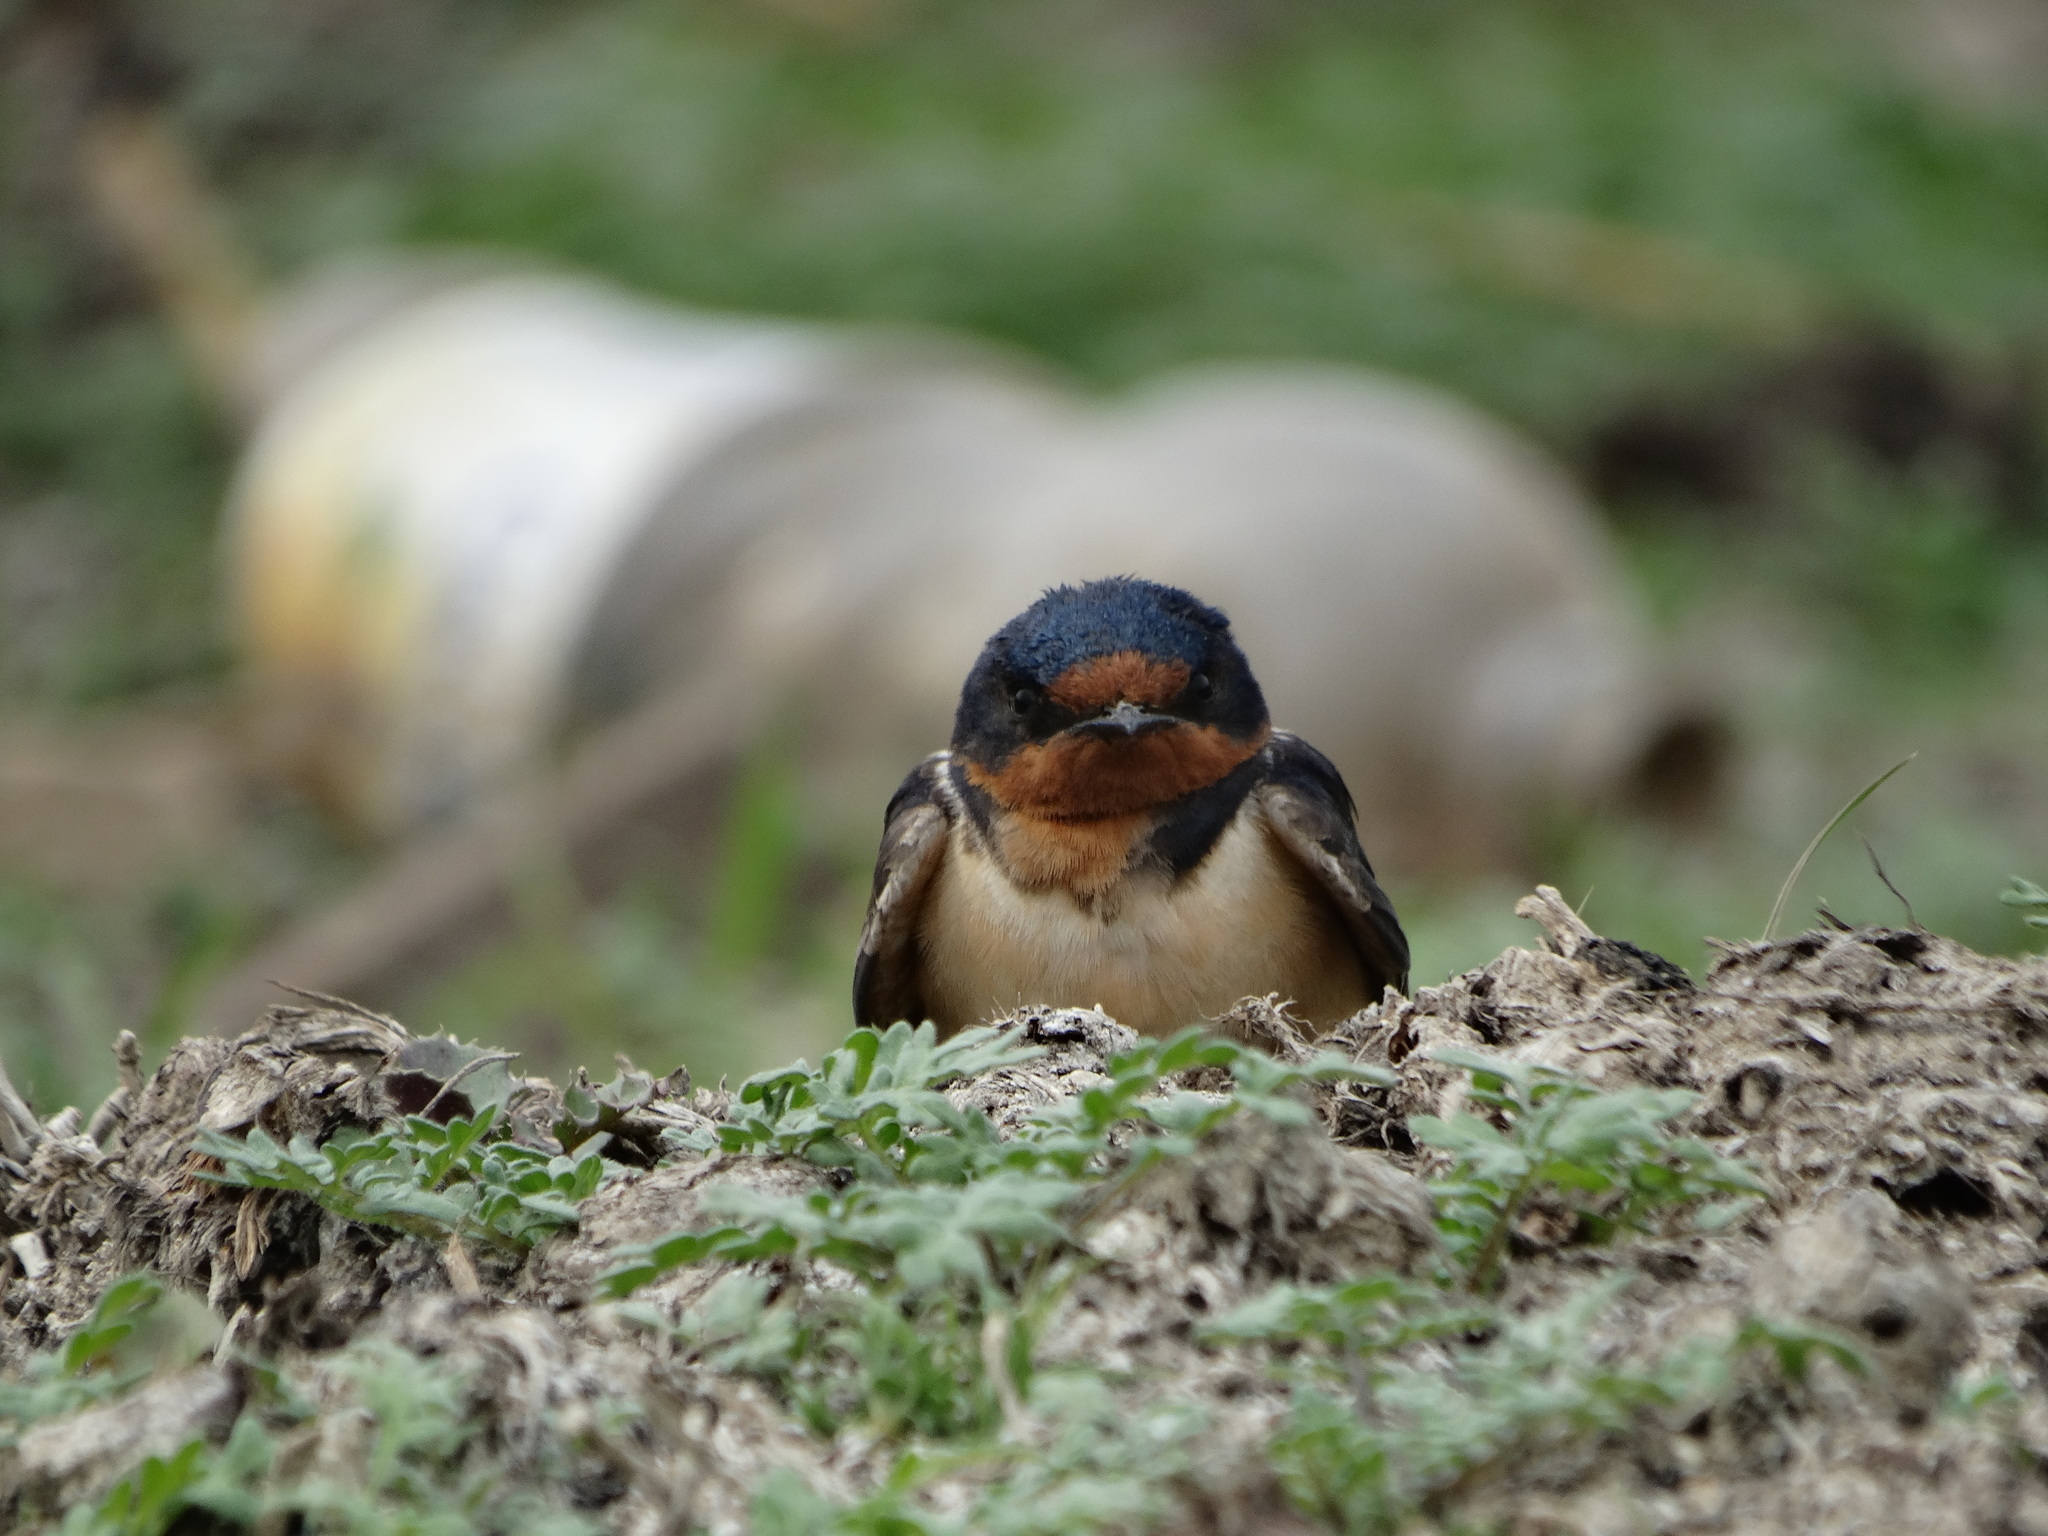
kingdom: Animalia
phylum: Chordata
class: Aves
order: Passeriformes
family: Hirundinidae
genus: Hirundo
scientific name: Hirundo rustica
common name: Barn swallow
